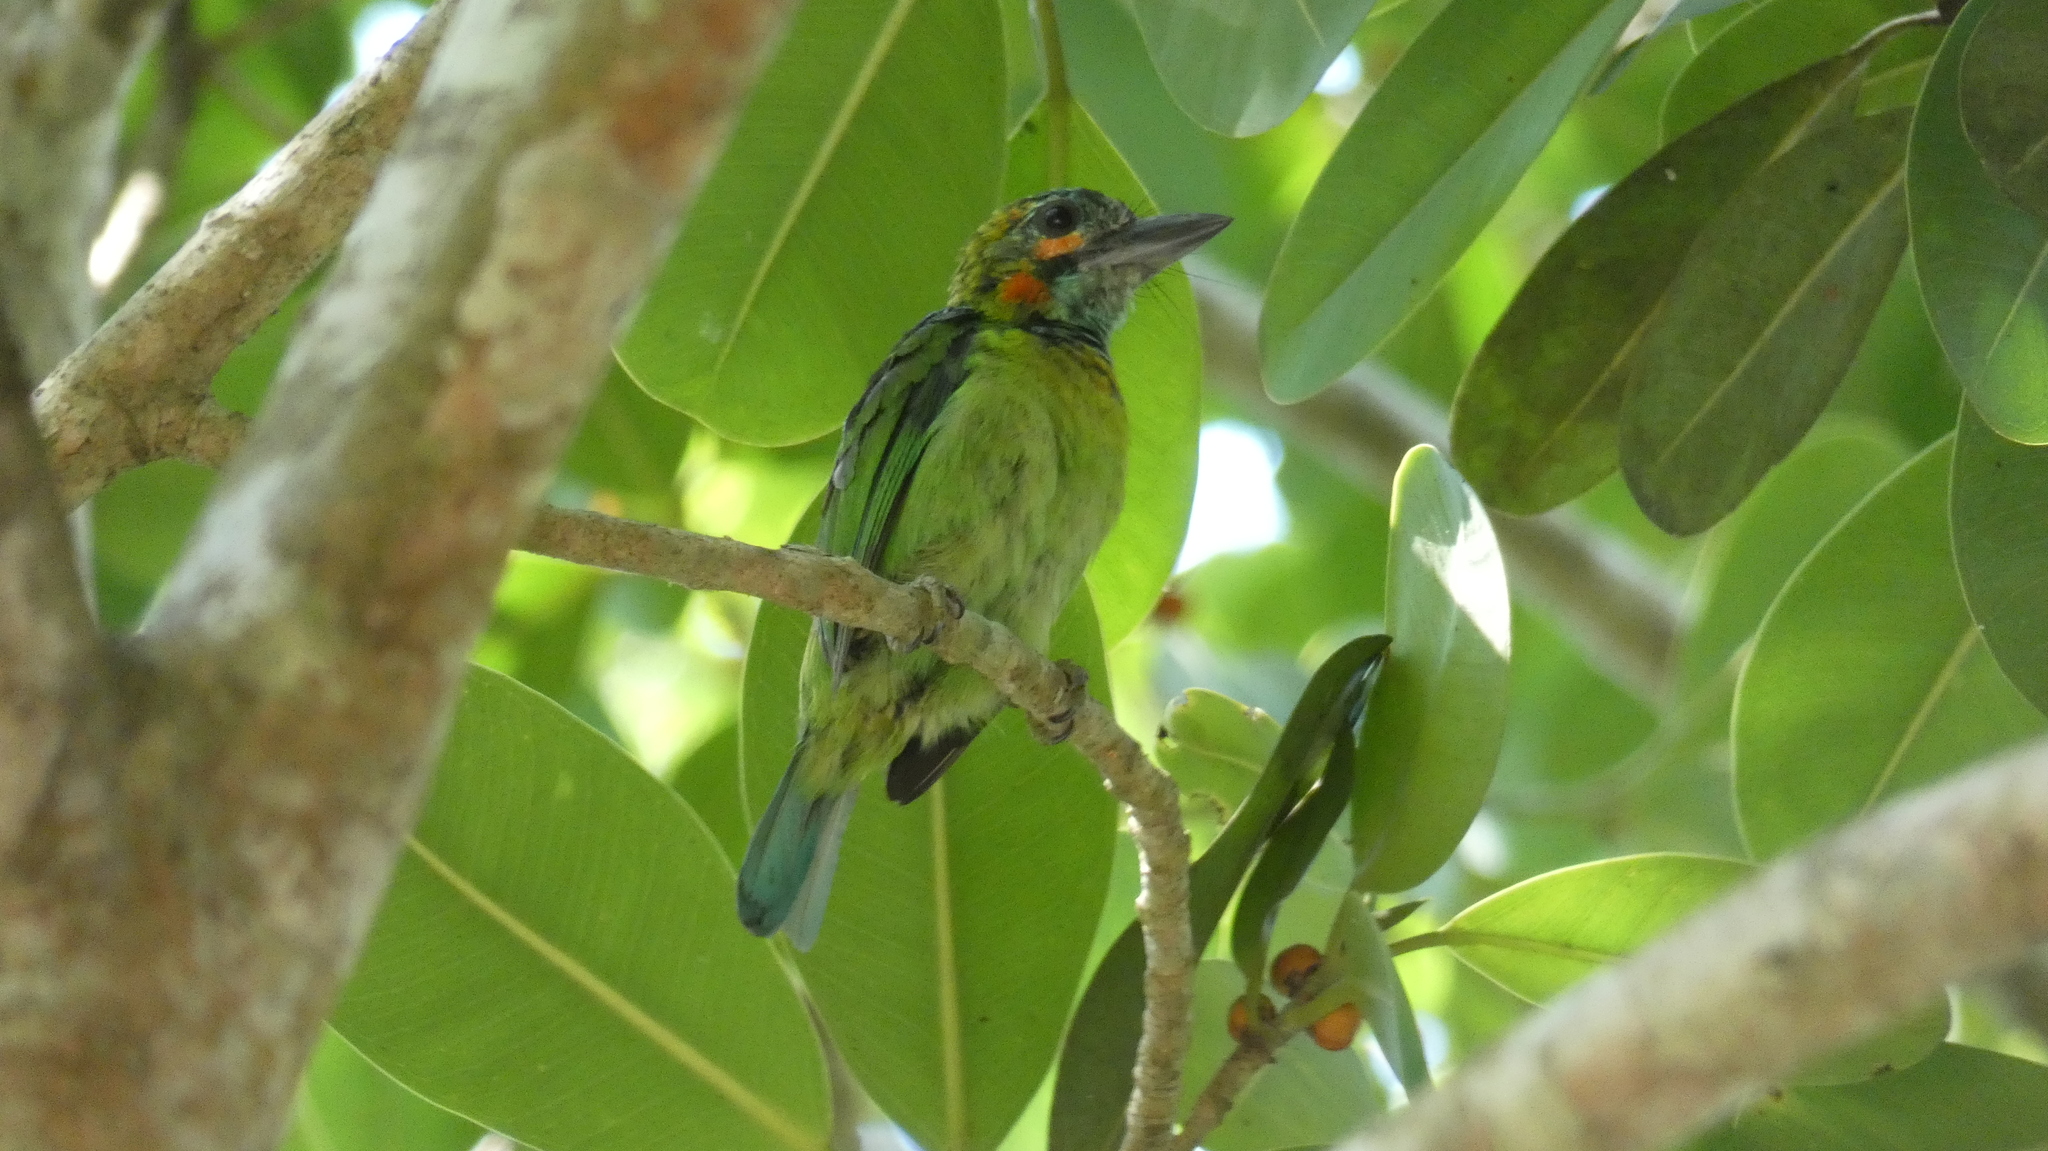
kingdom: Animalia
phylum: Chordata
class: Aves
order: Piciformes
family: Megalaimidae
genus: Psilopogon
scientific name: Psilopogon duvaucelii
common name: Blue-eared barbet
